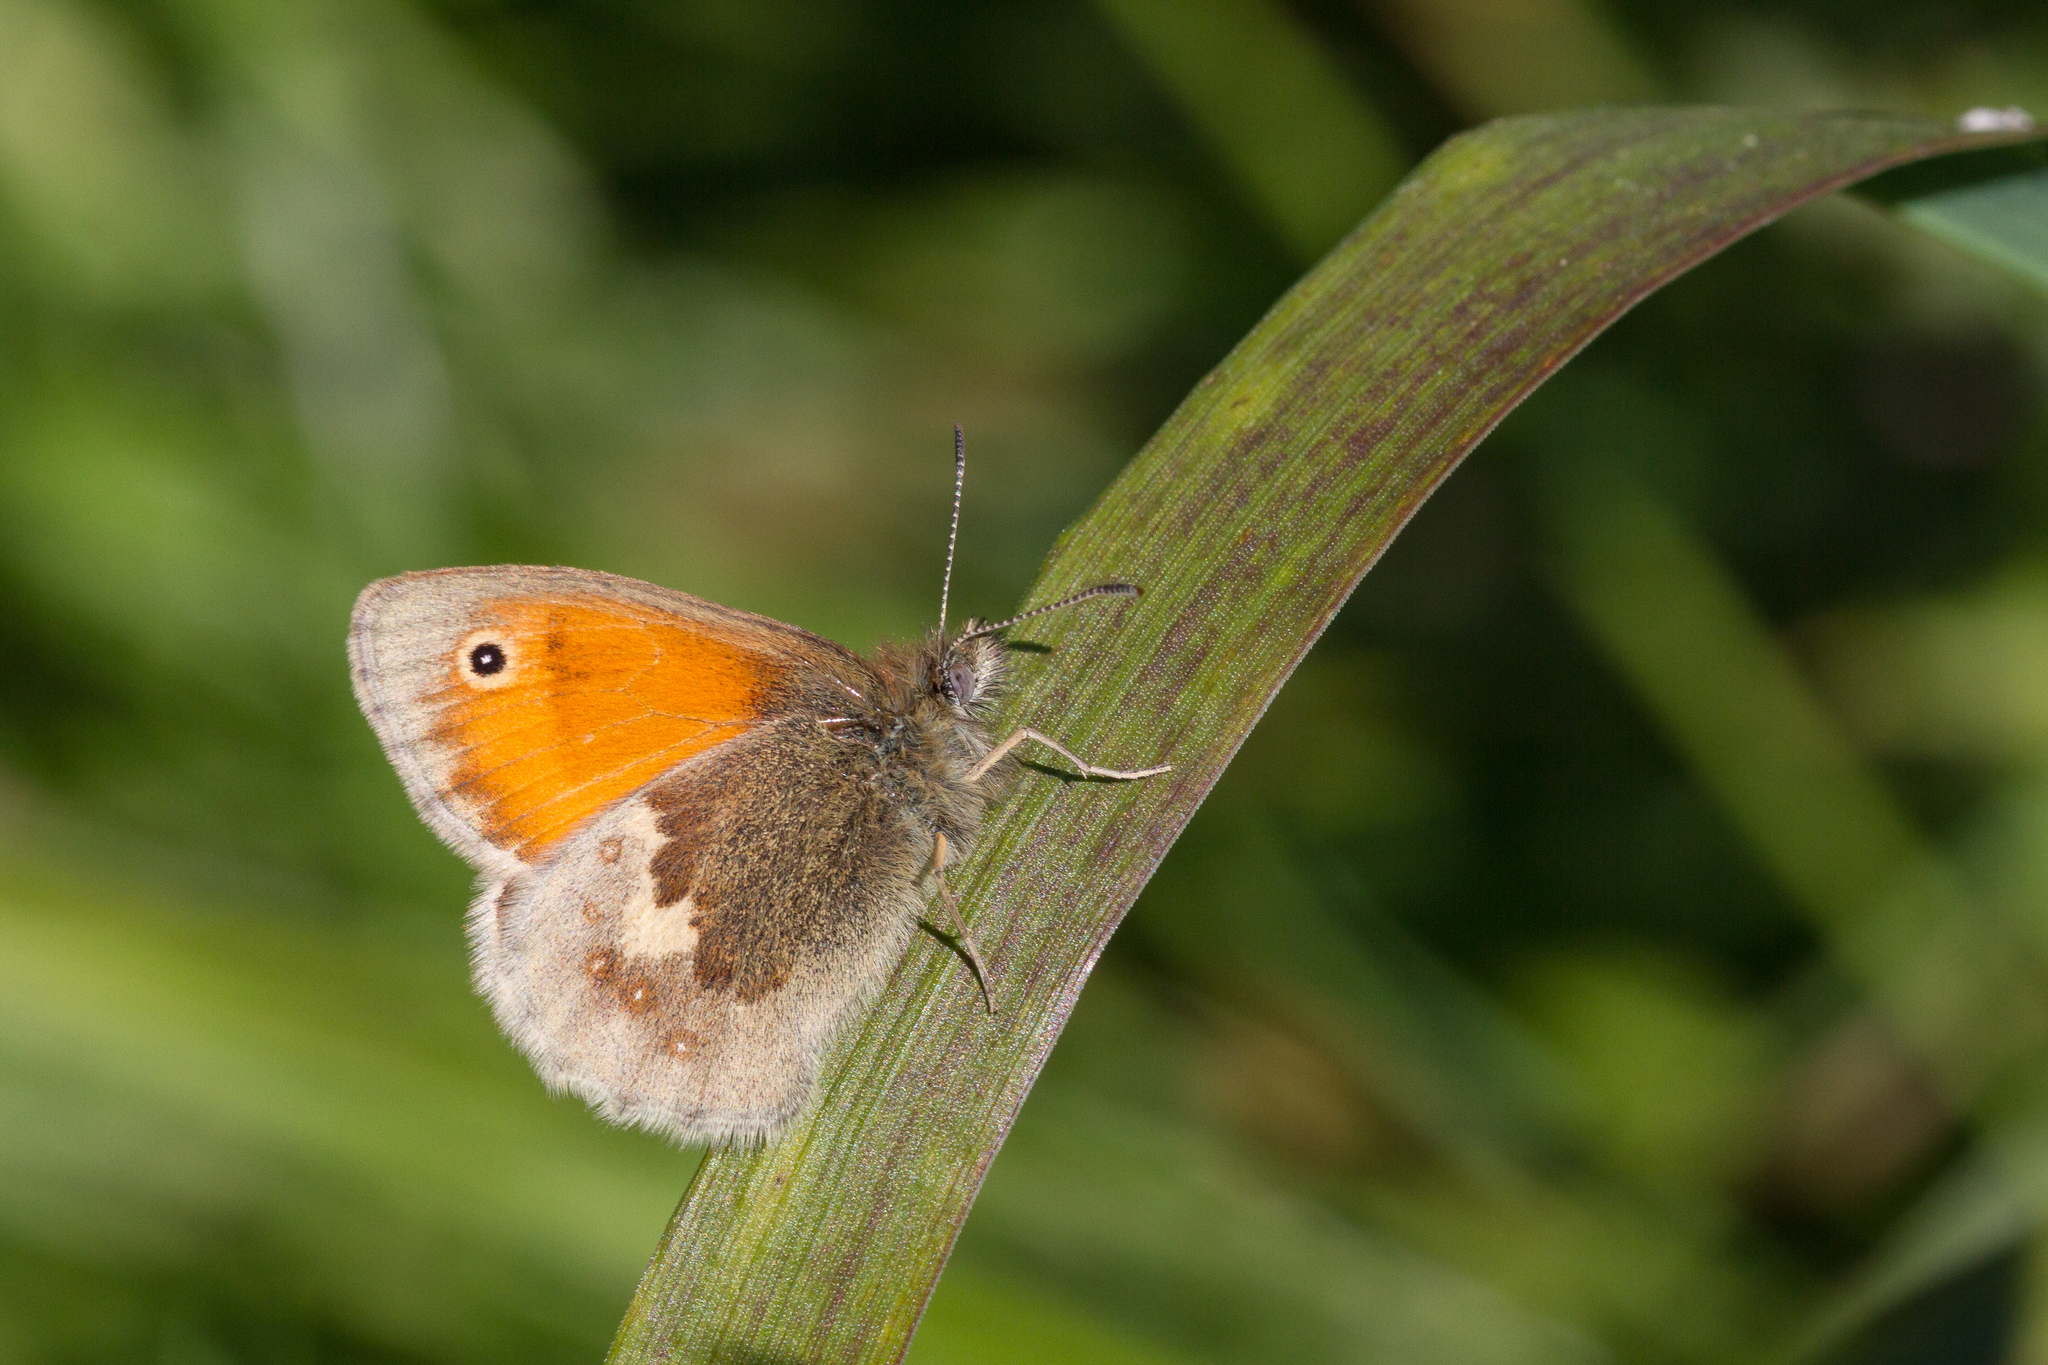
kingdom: Animalia
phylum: Arthropoda
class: Insecta
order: Lepidoptera
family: Nymphalidae
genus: Coenonympha
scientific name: Coenonympha pamphilus
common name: Small heath
